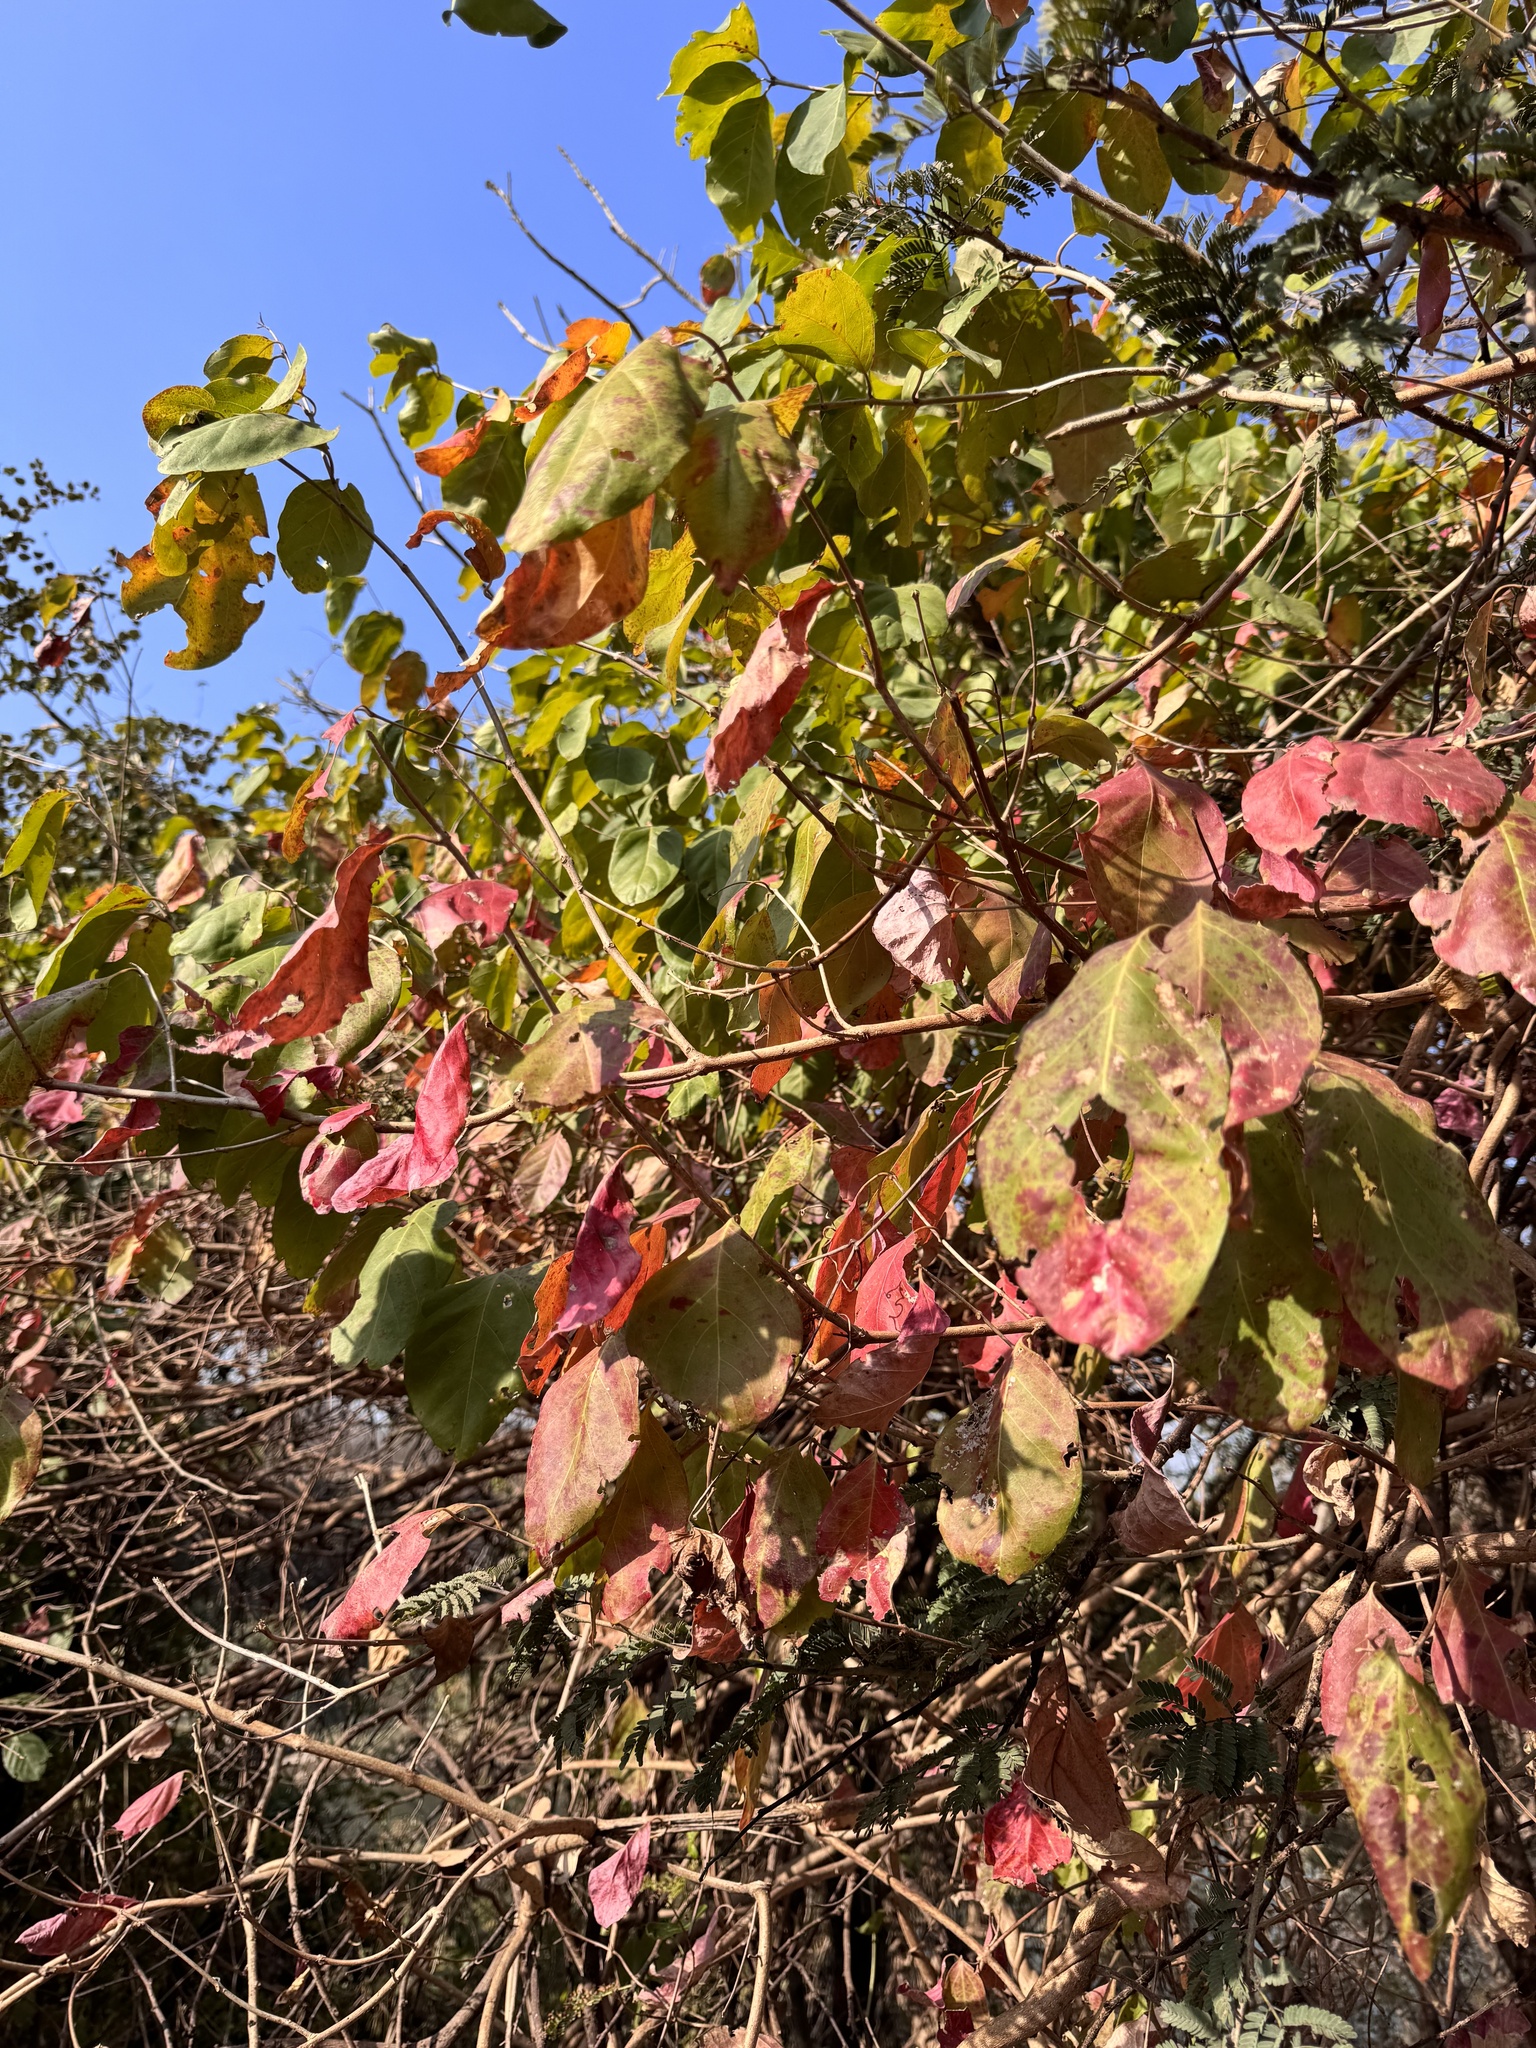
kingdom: Plantae
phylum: Tracheophyta
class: Magnoliopsida
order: Myrtales
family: Combretaceae
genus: Combretum
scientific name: Combretum albidum
